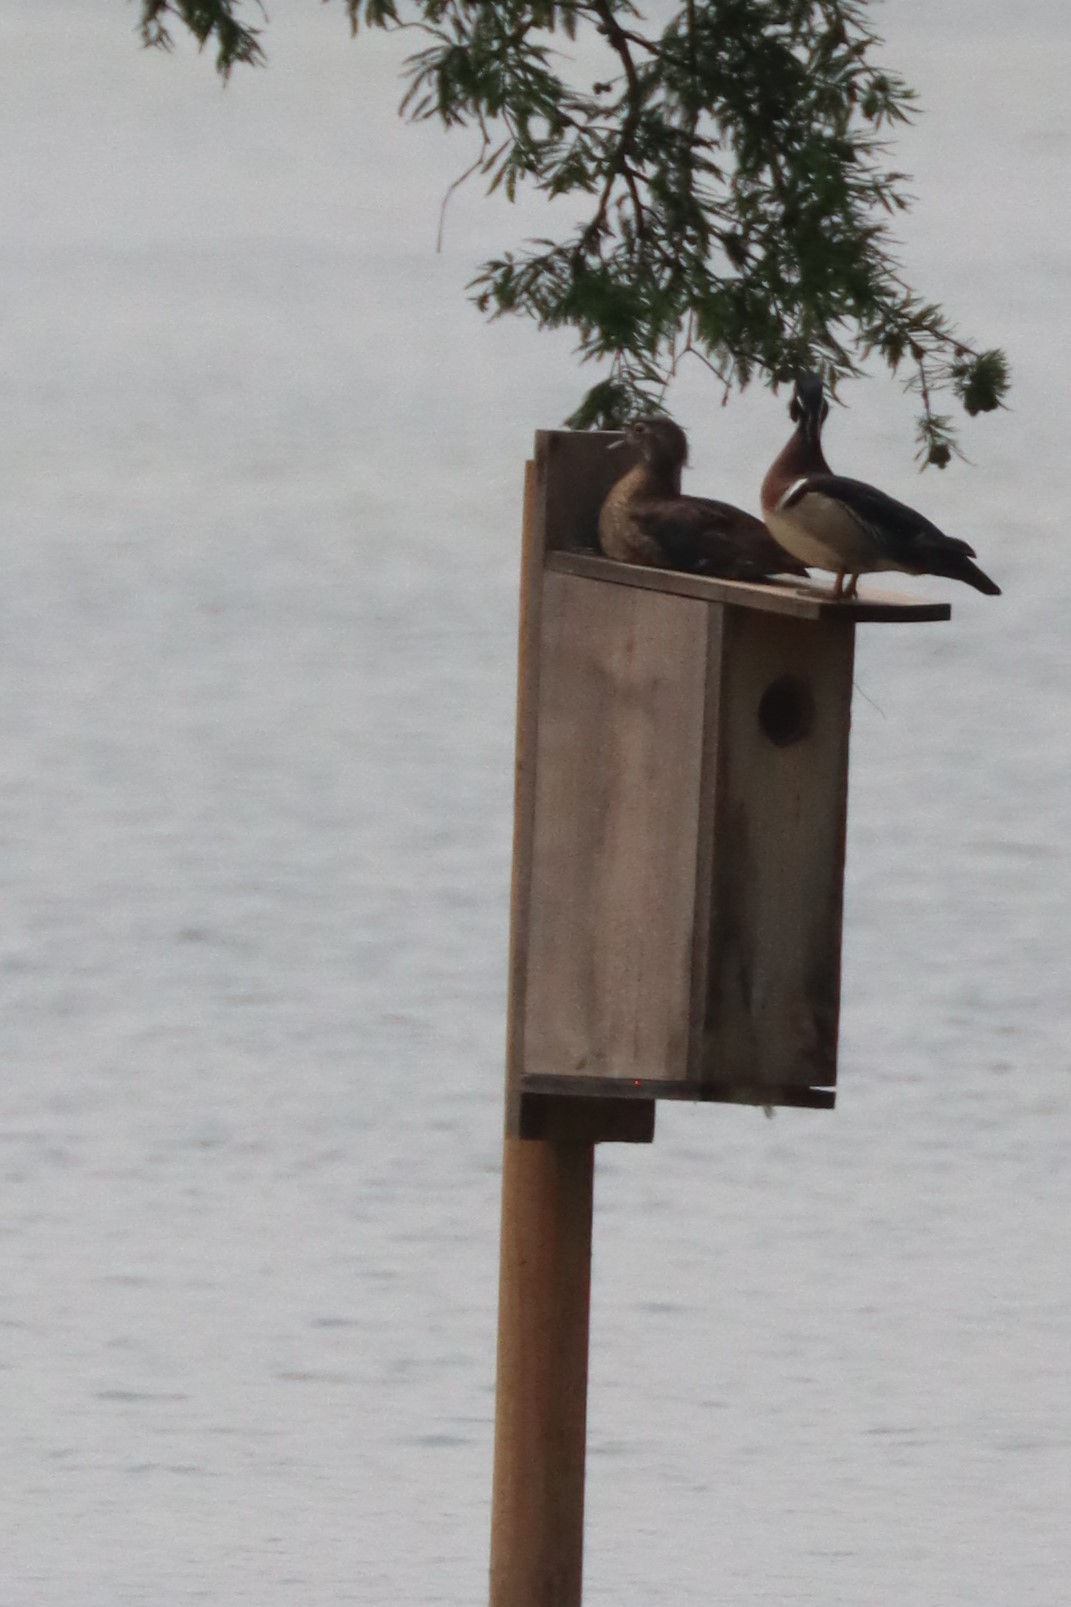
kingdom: Animalia
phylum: Chordata
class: Aves
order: Anseriformes
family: Anatidae
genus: Aix
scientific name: Aix sponsa
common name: Wood duck
